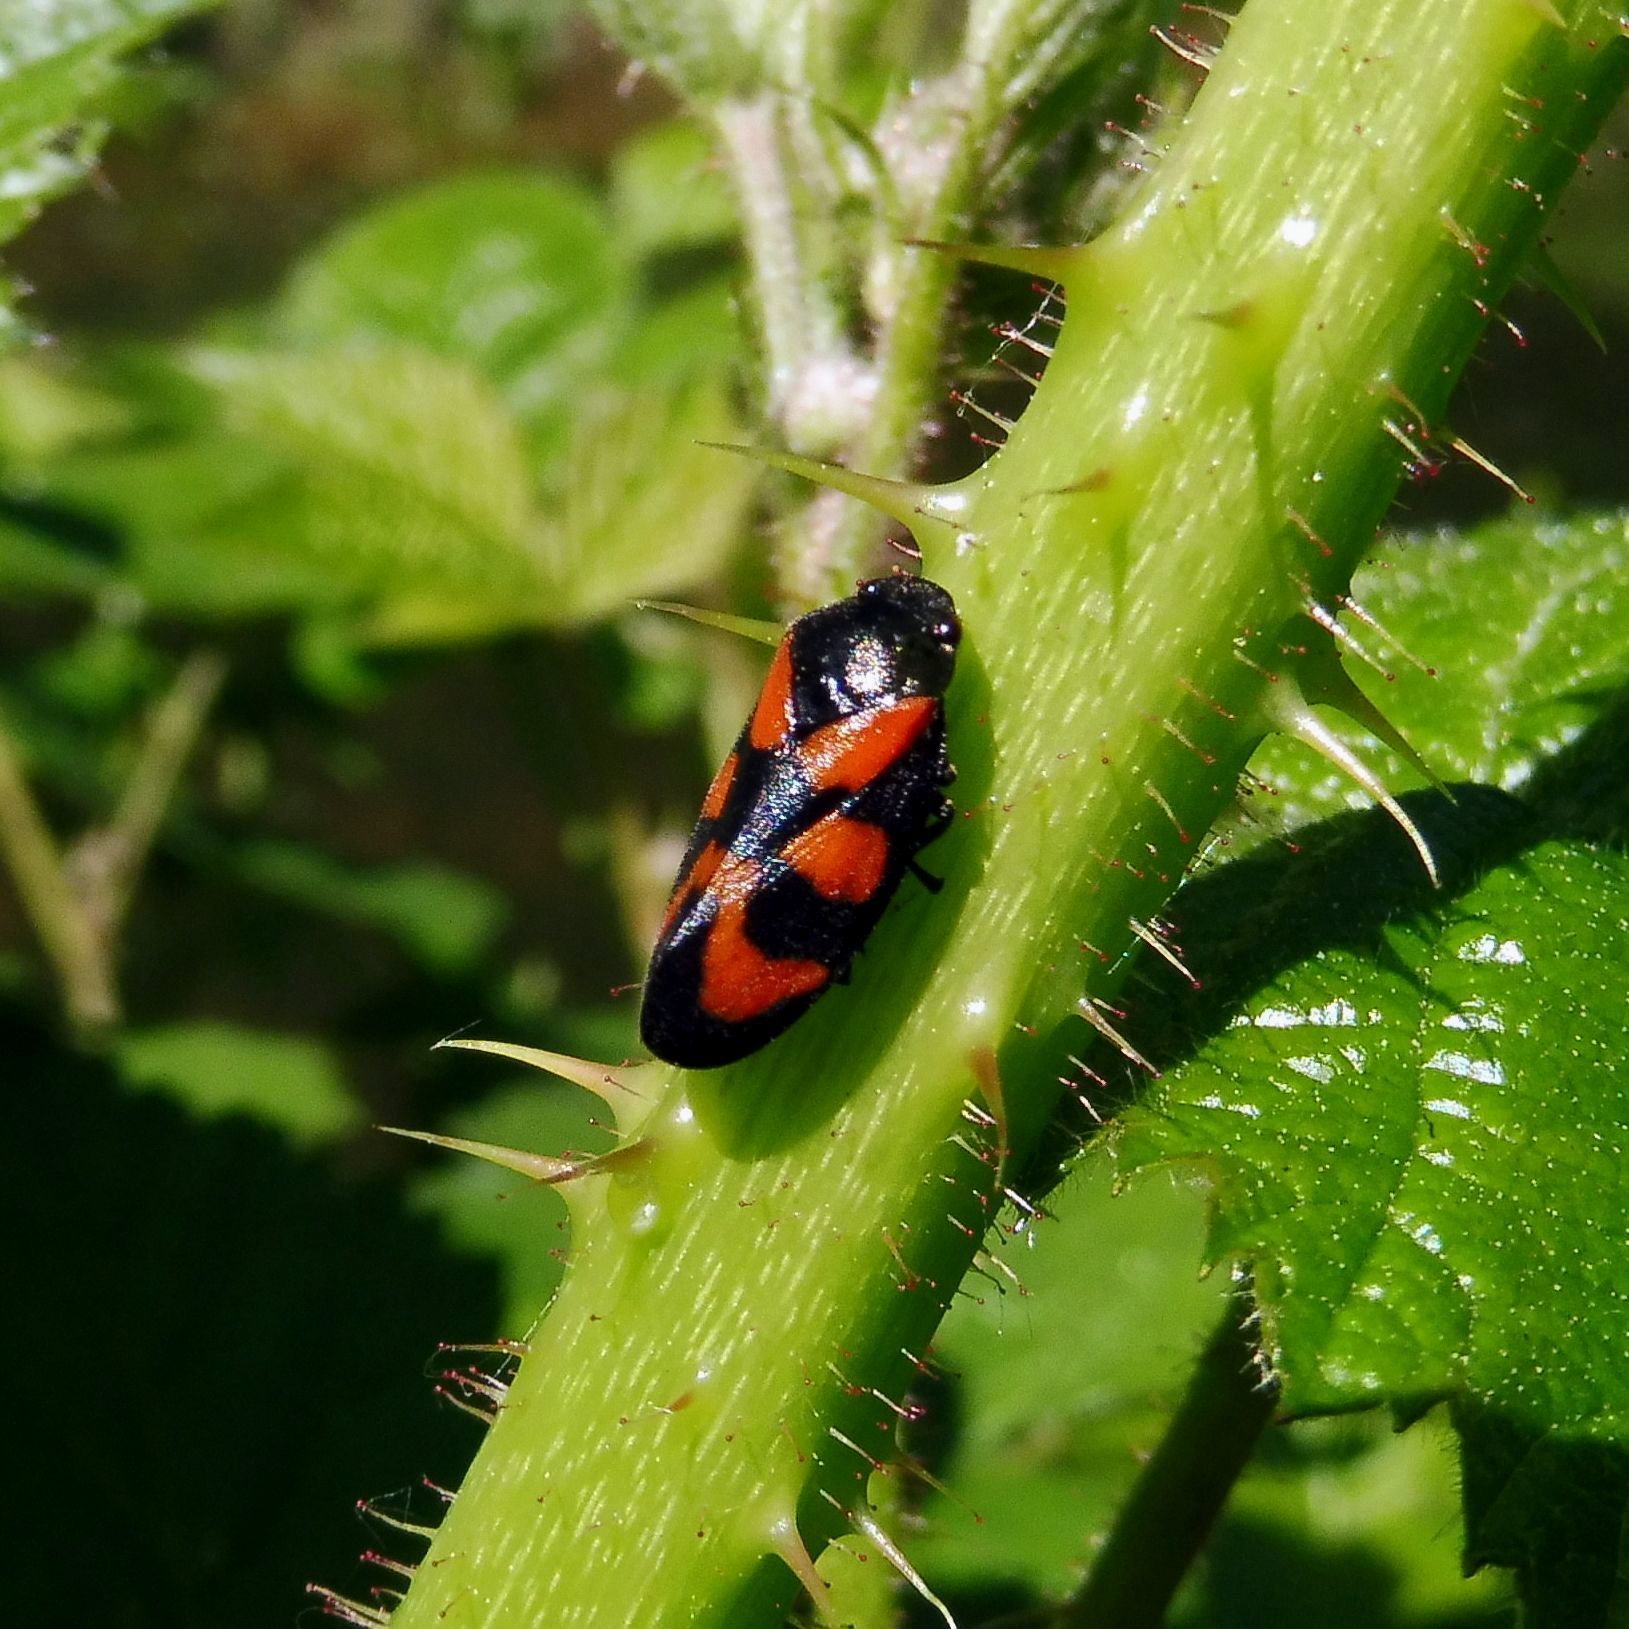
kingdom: Animalia
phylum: Arthropoda
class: Insecta
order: Hemiptera
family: Cercopidae
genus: Cercopis
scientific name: Cercopis vulnerata
